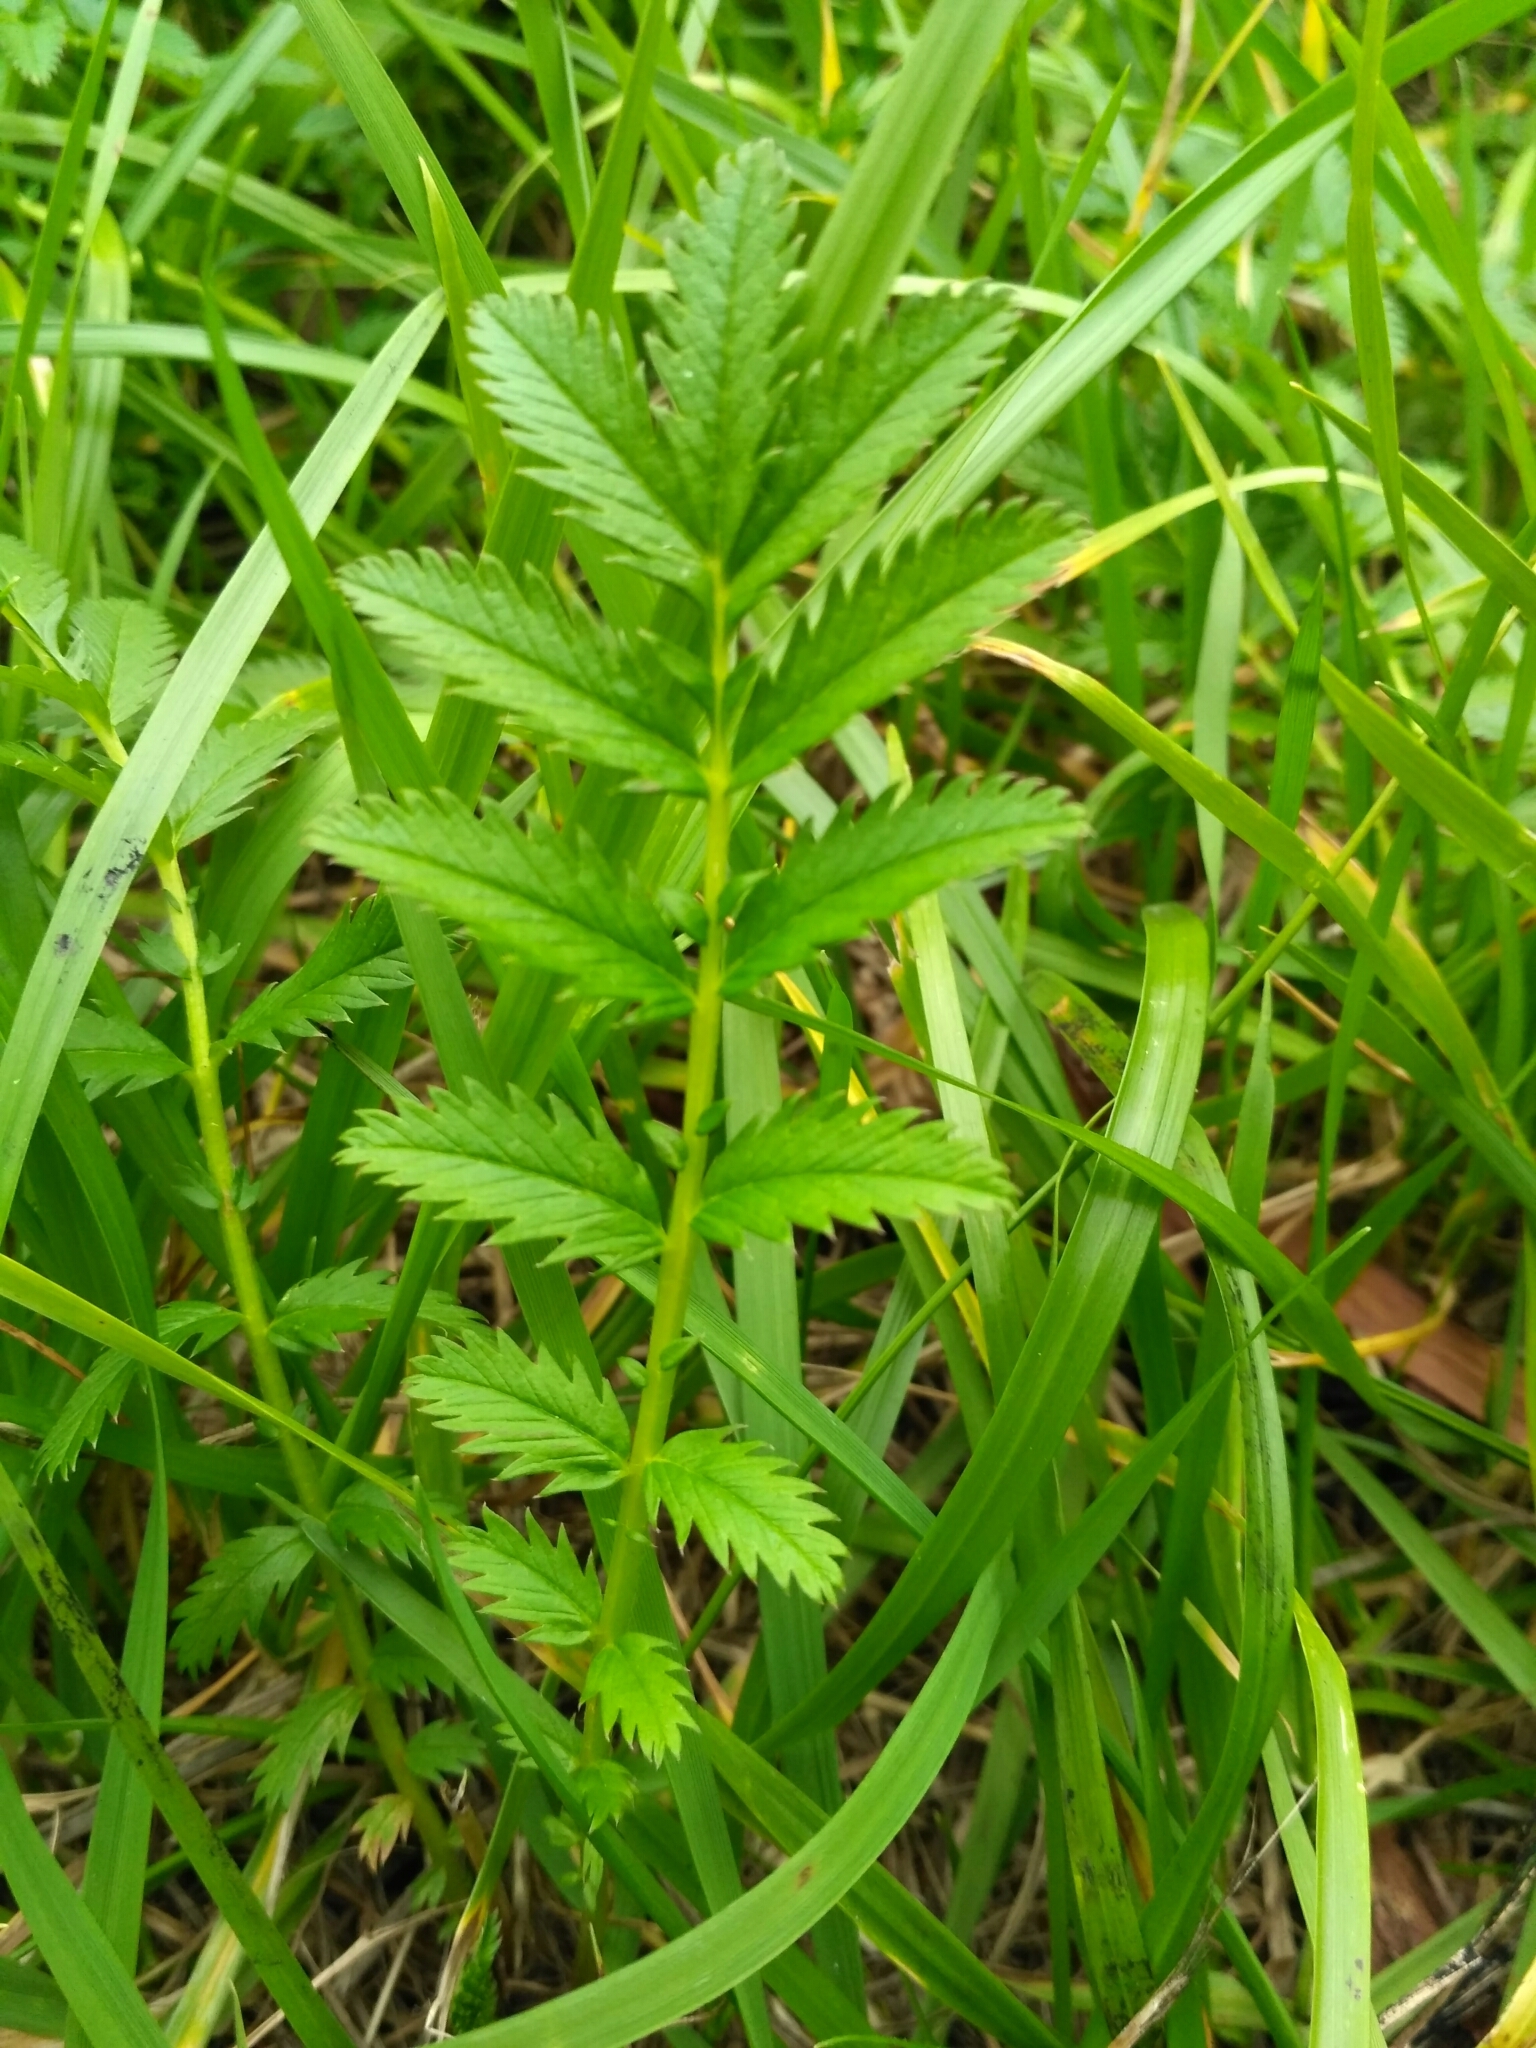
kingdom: Plantae
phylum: Tracheophyta
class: Magnoliopsida
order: Rosales
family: Rosaceae
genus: Argentina
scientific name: Argentina anserina
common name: Common silverweed
